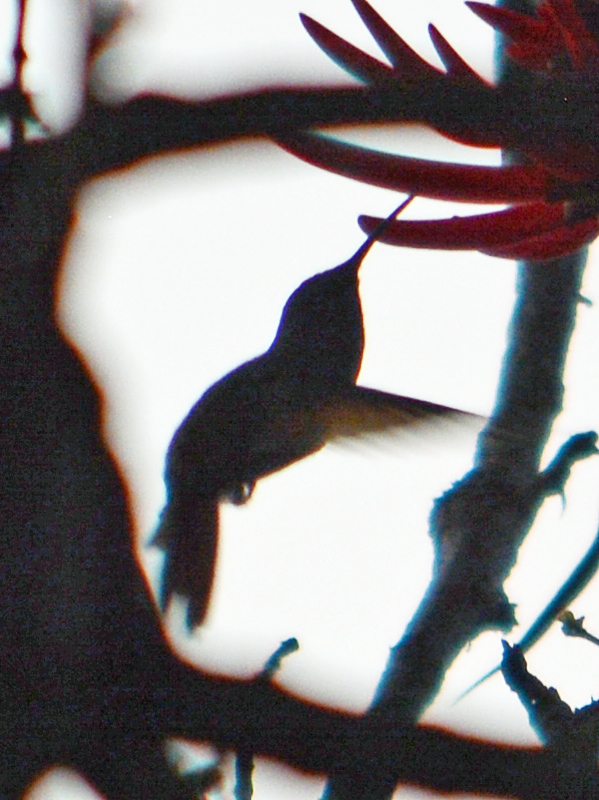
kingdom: Animalia
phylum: Chordata
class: Aves
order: Apodiformes
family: Trochilidae
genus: Saucerottia
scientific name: Saucerottia beryllina
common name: Berylline hummingbird
